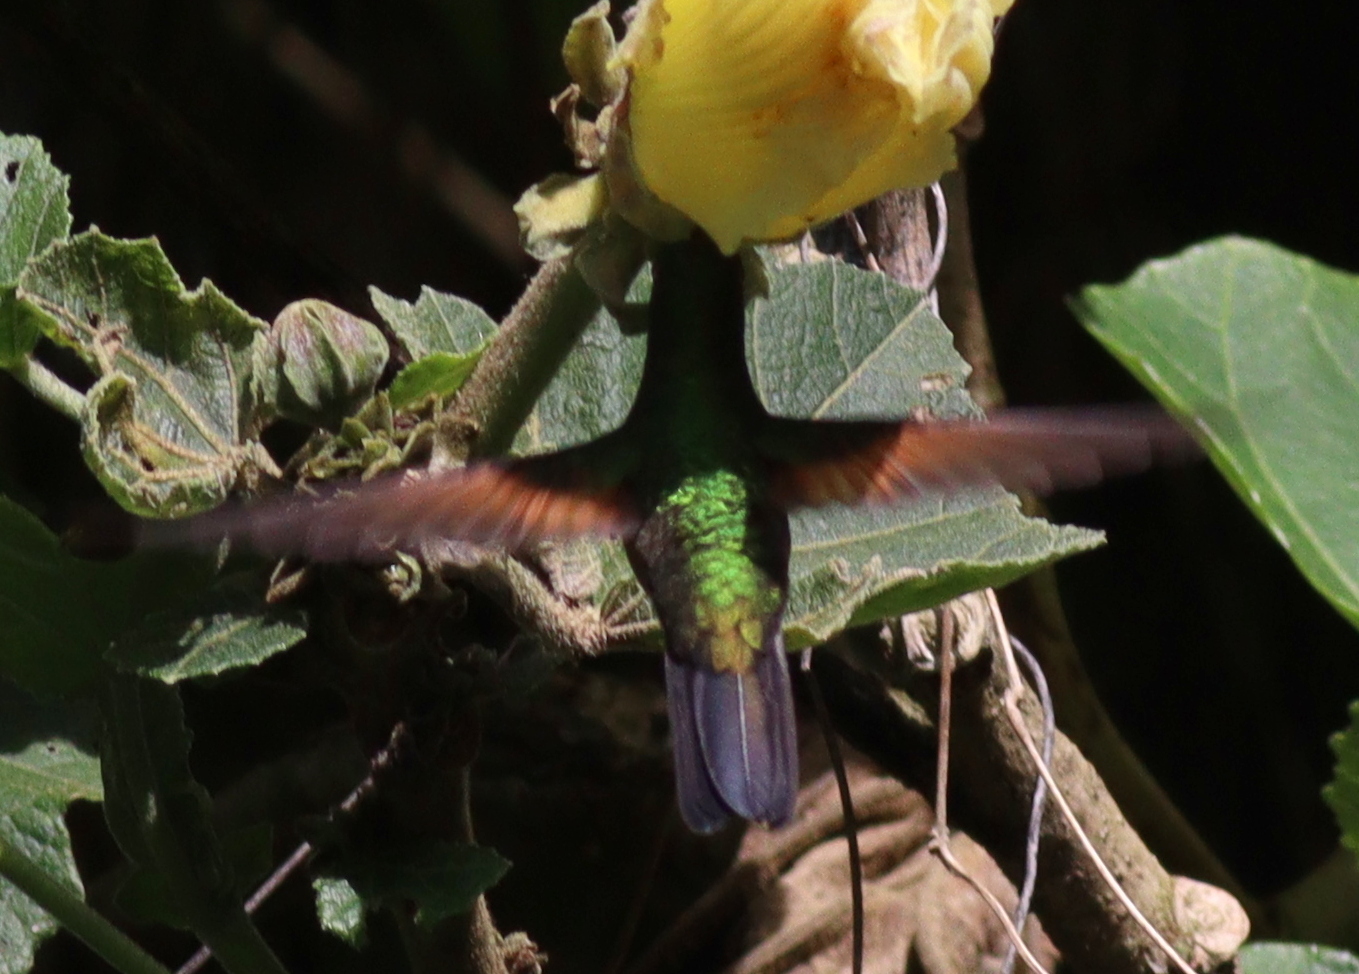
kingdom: Animalia
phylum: Chordata
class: Aves
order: Apodiformes
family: Trochilidae
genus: Eupherusa
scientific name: Eupherusa eximia
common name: Stripe-tailed hummingbird
